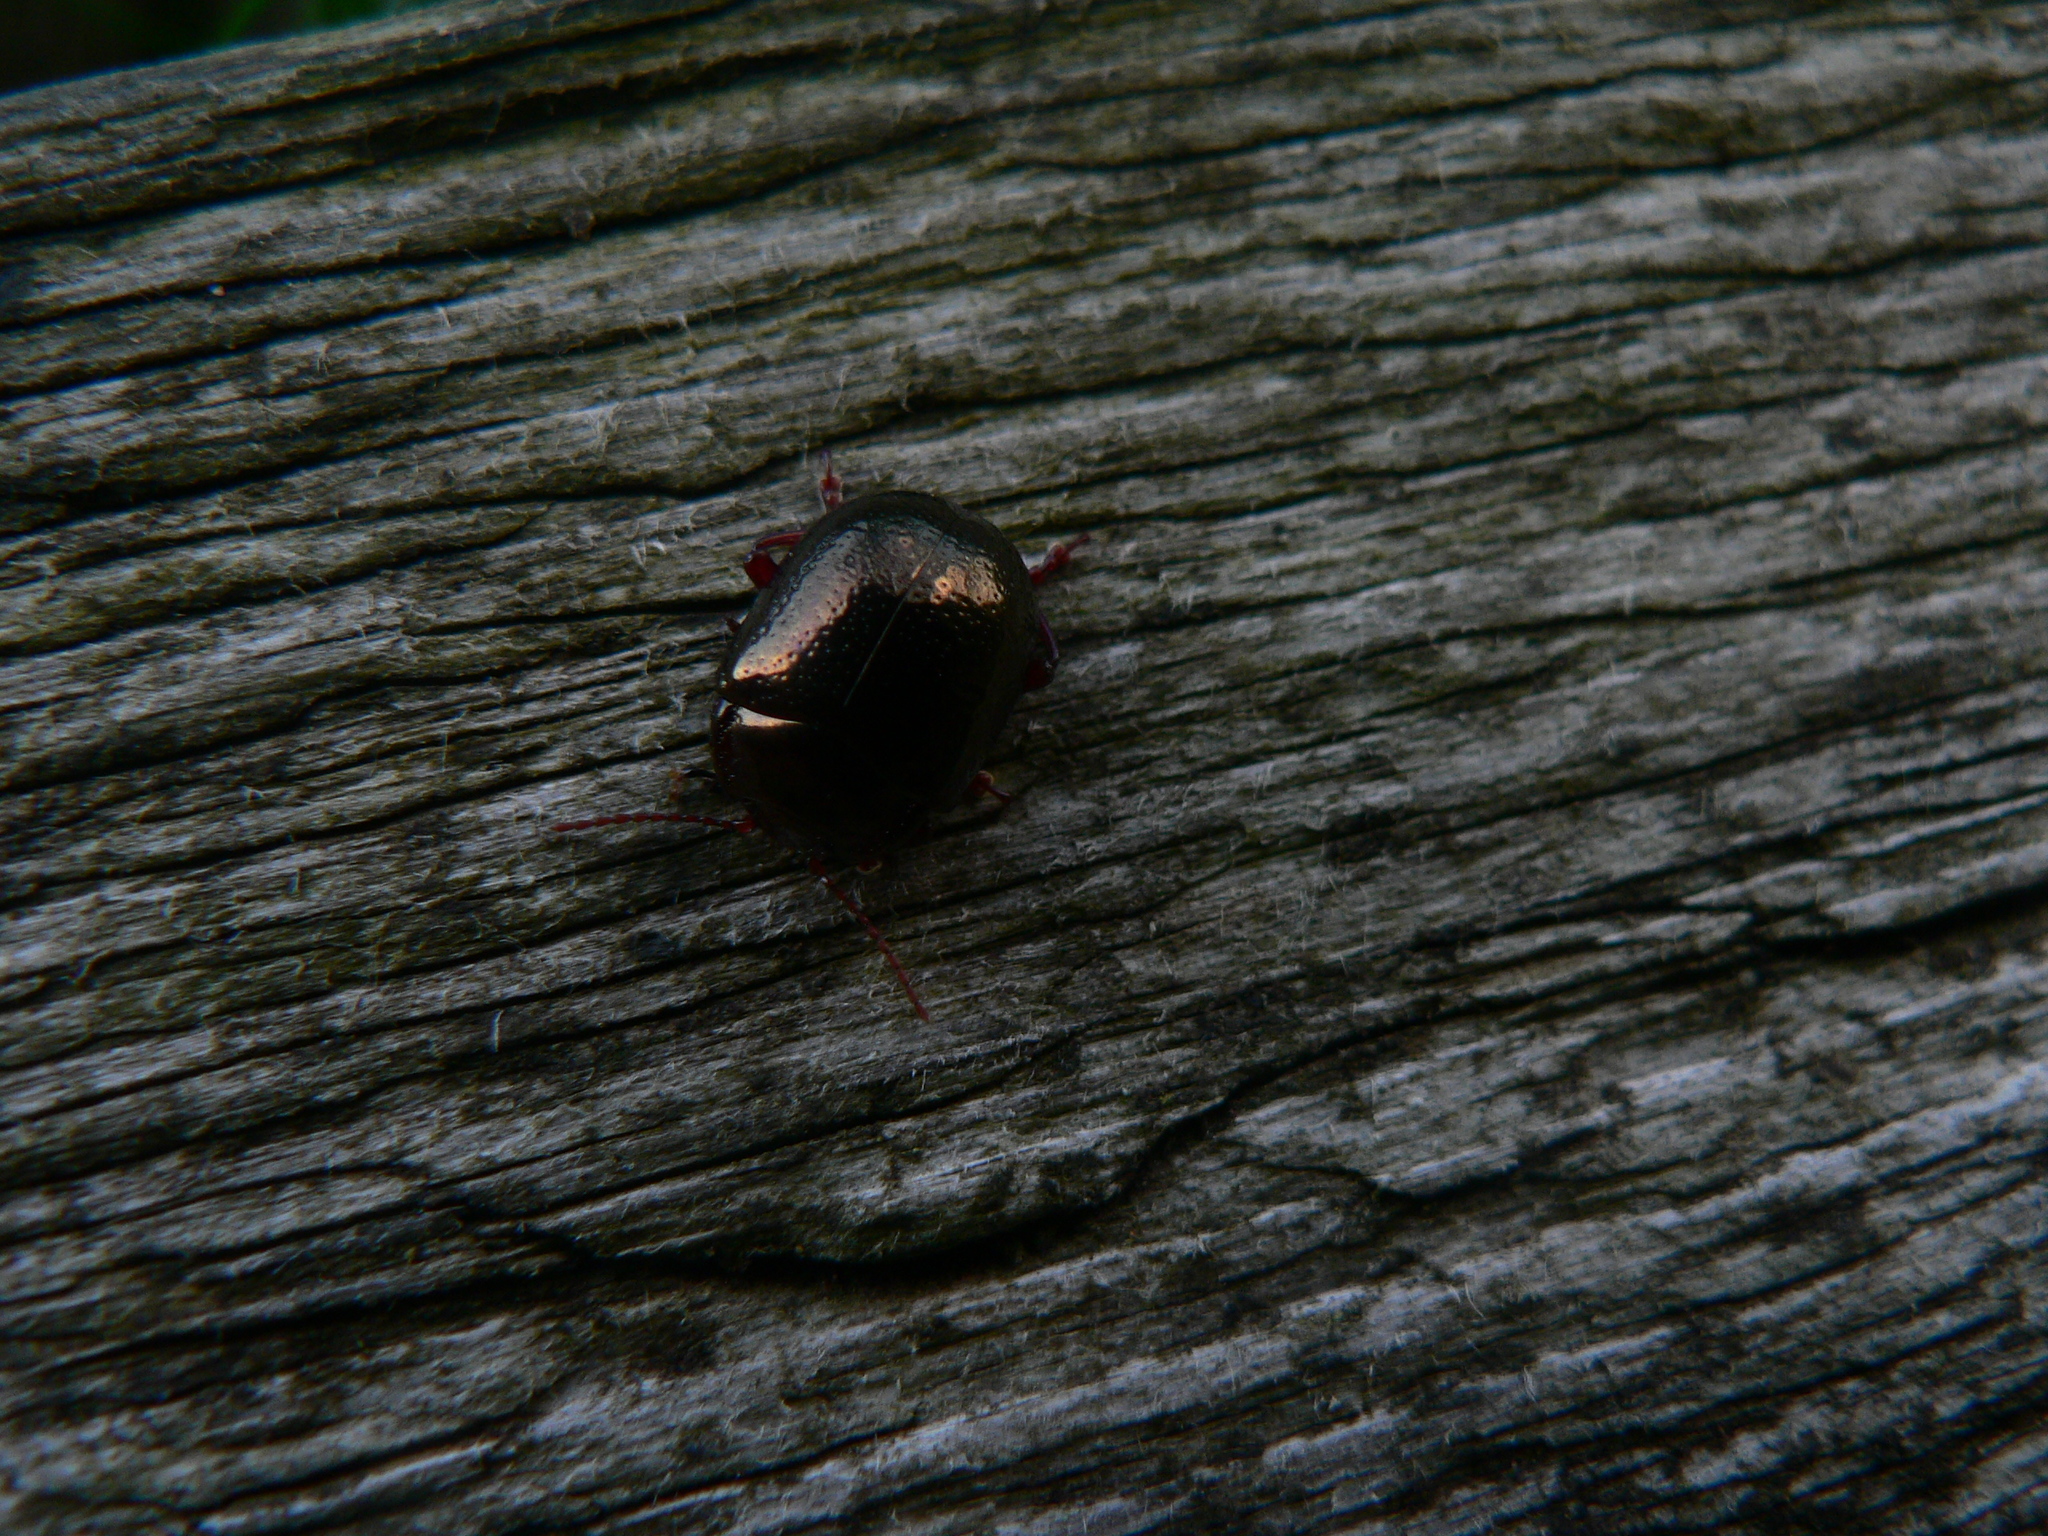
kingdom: Animalia
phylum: Arthropoda
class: Insecta
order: Coleoptera
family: Chrysomelidae
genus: Chrysolina
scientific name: Chrysolina bankii
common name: Leaf beetle
